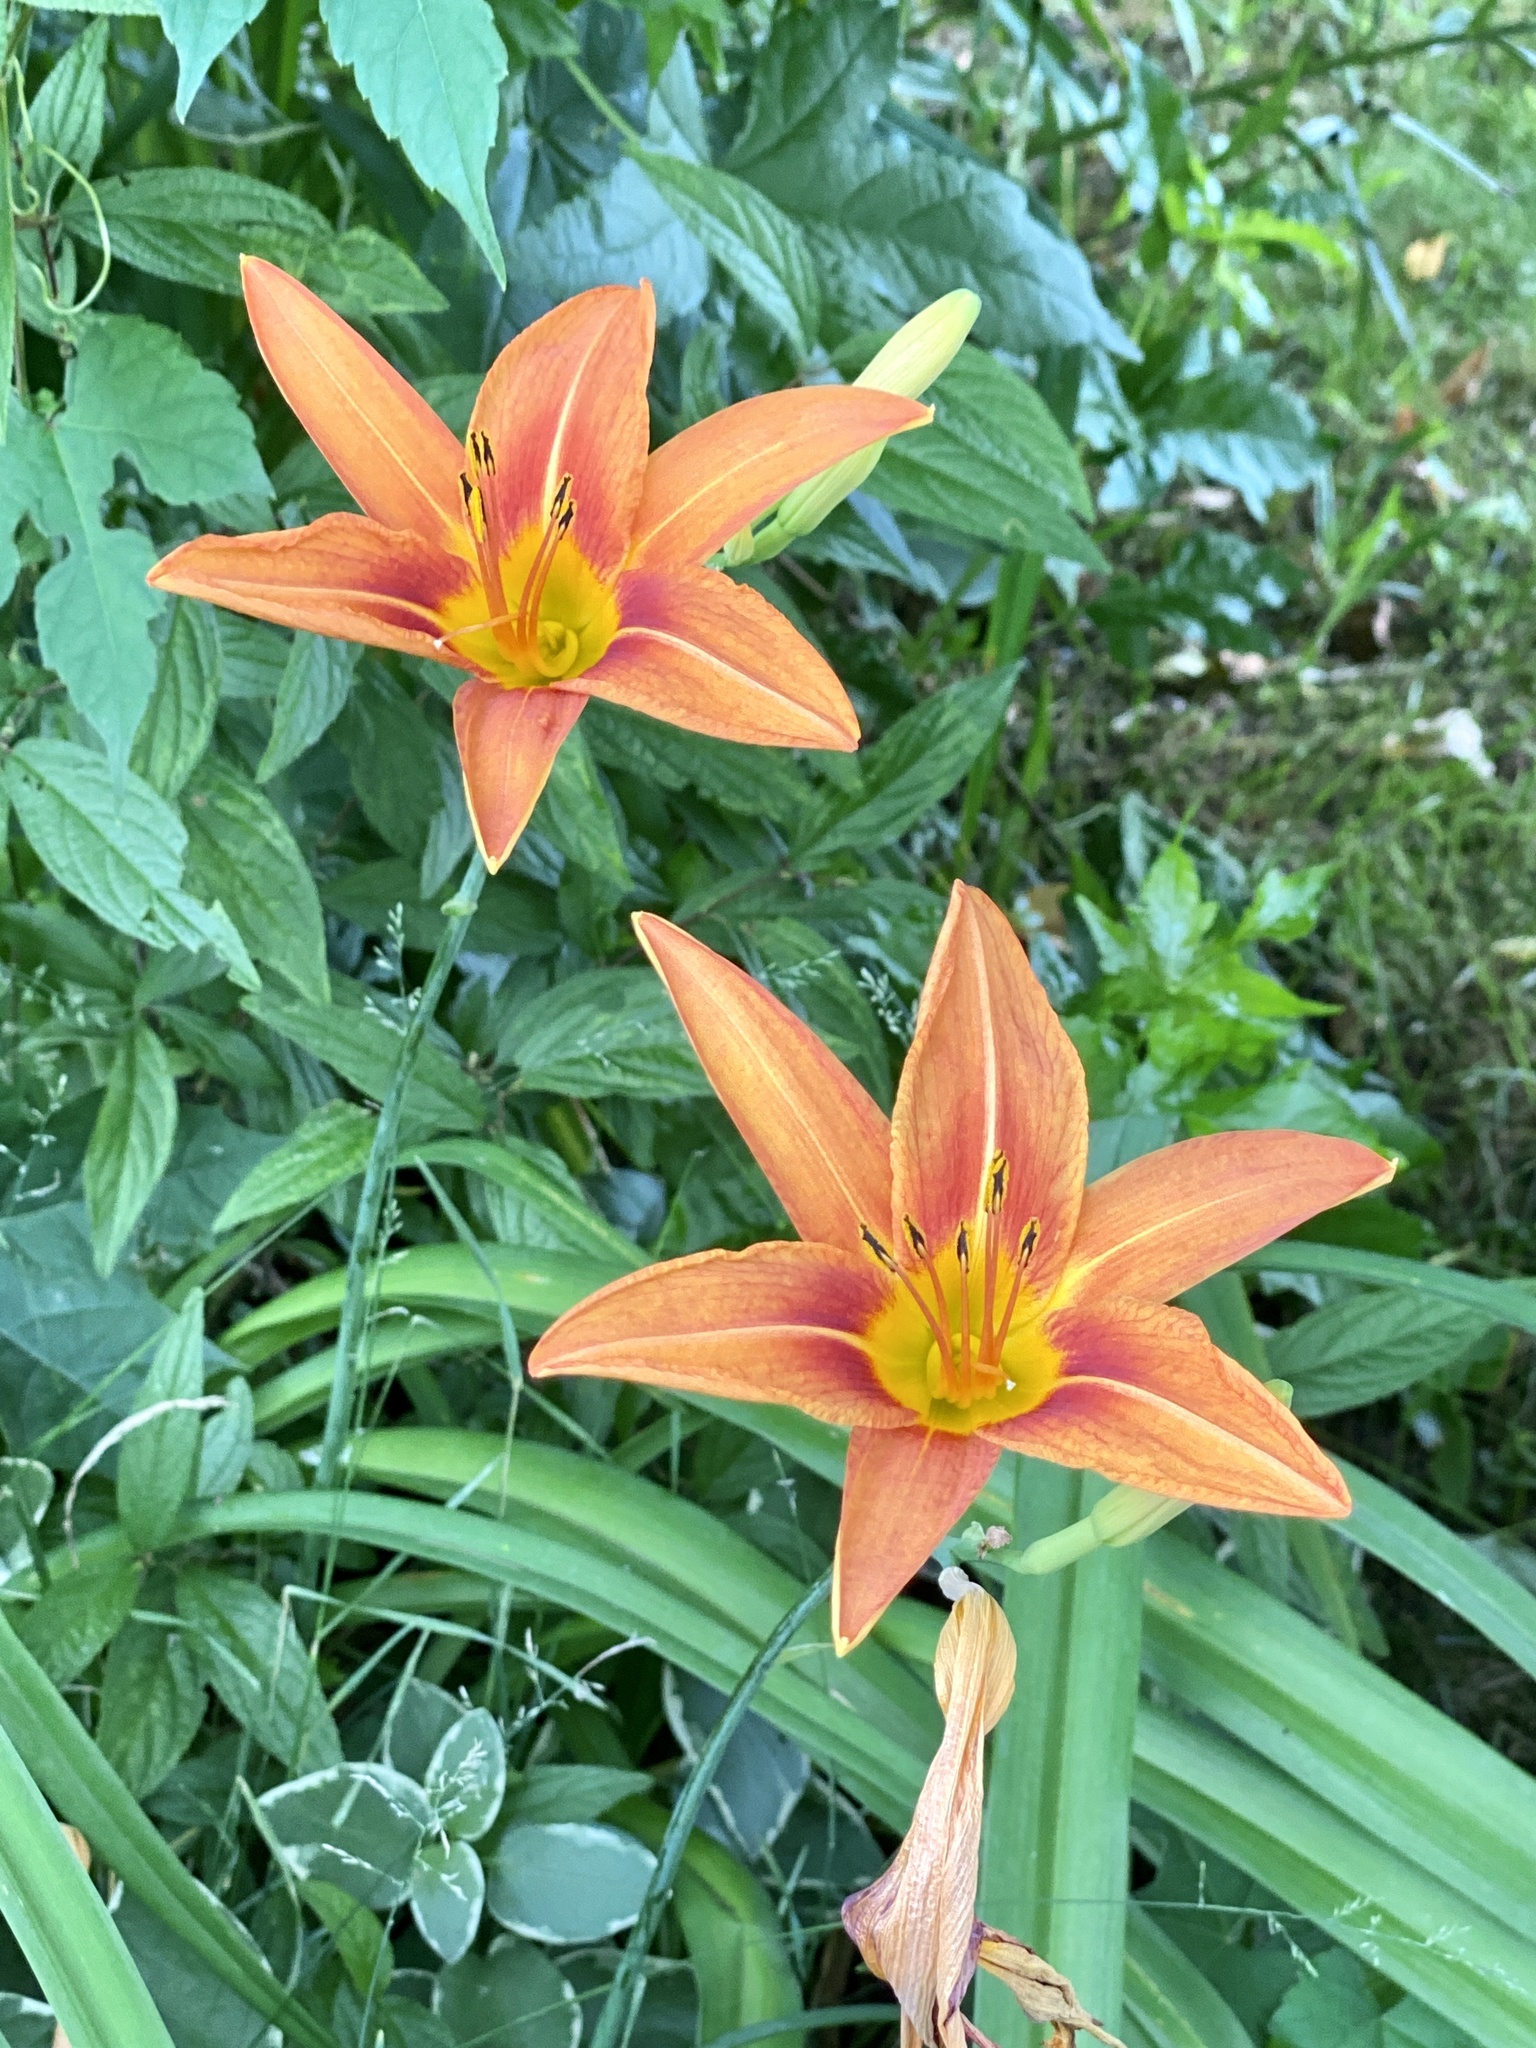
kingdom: Plantae
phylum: Tracheophyta
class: Liliopsida
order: Asparagales
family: Asphodelaceae
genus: Hemerocallis
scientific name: Hemerocallis fulva
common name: Orange day-lily
